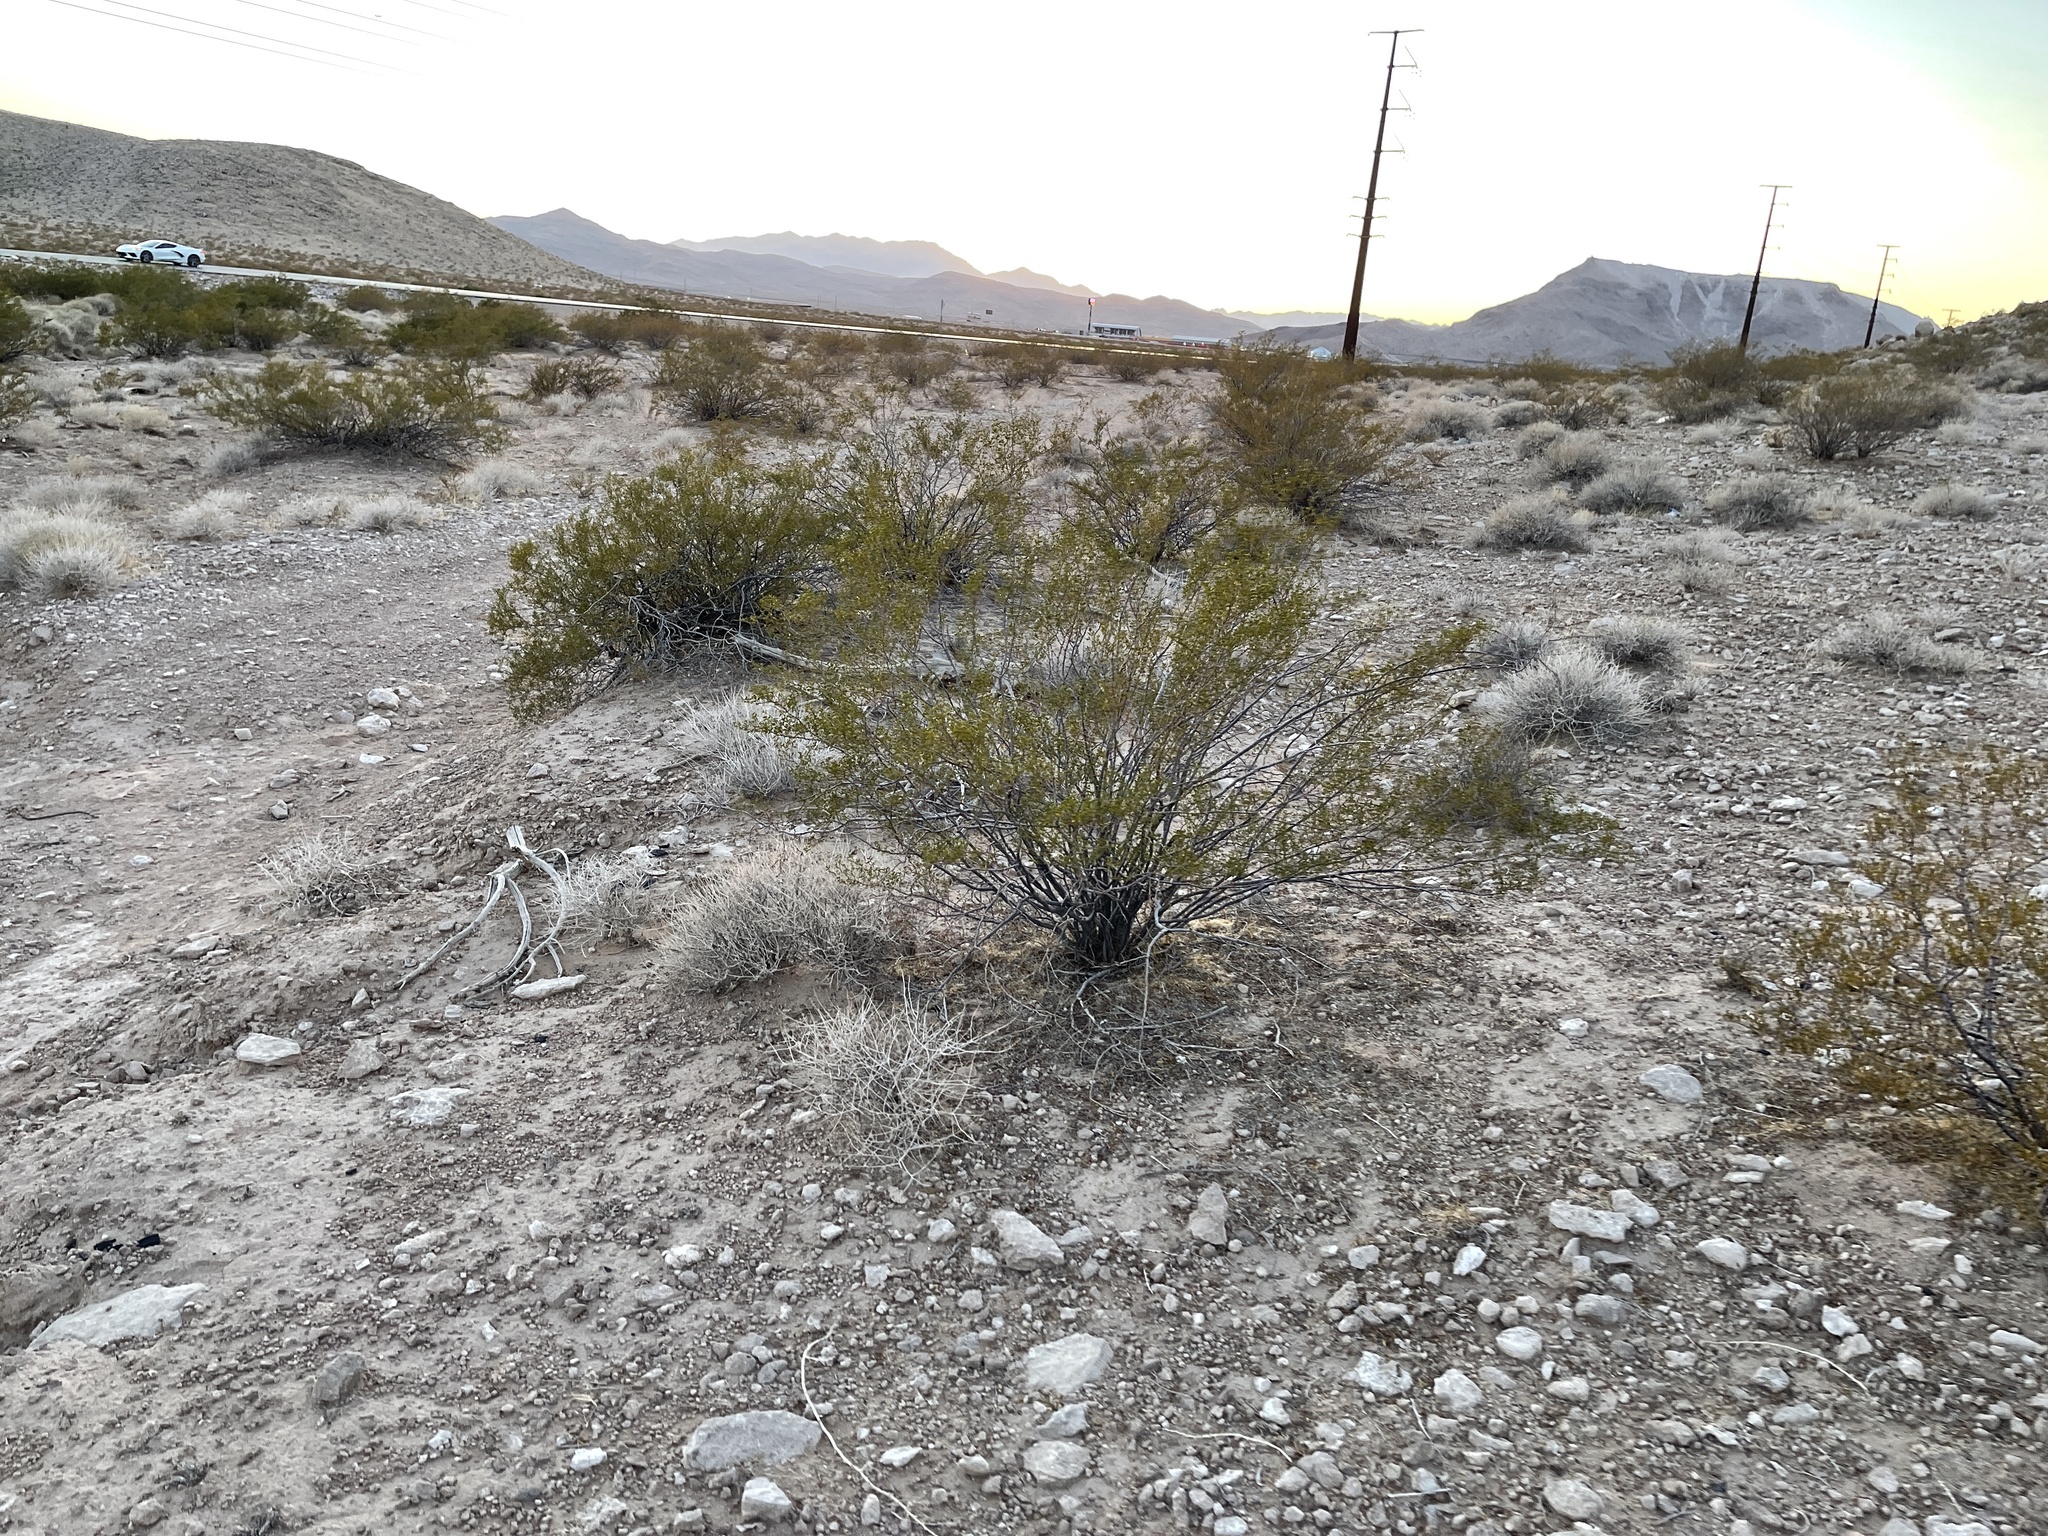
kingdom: Plantae
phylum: Tracheophyta
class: Magnoliopsida
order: Zygophyllales
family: Zygophyllaceae
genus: Larrea
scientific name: Larrea tridentata
